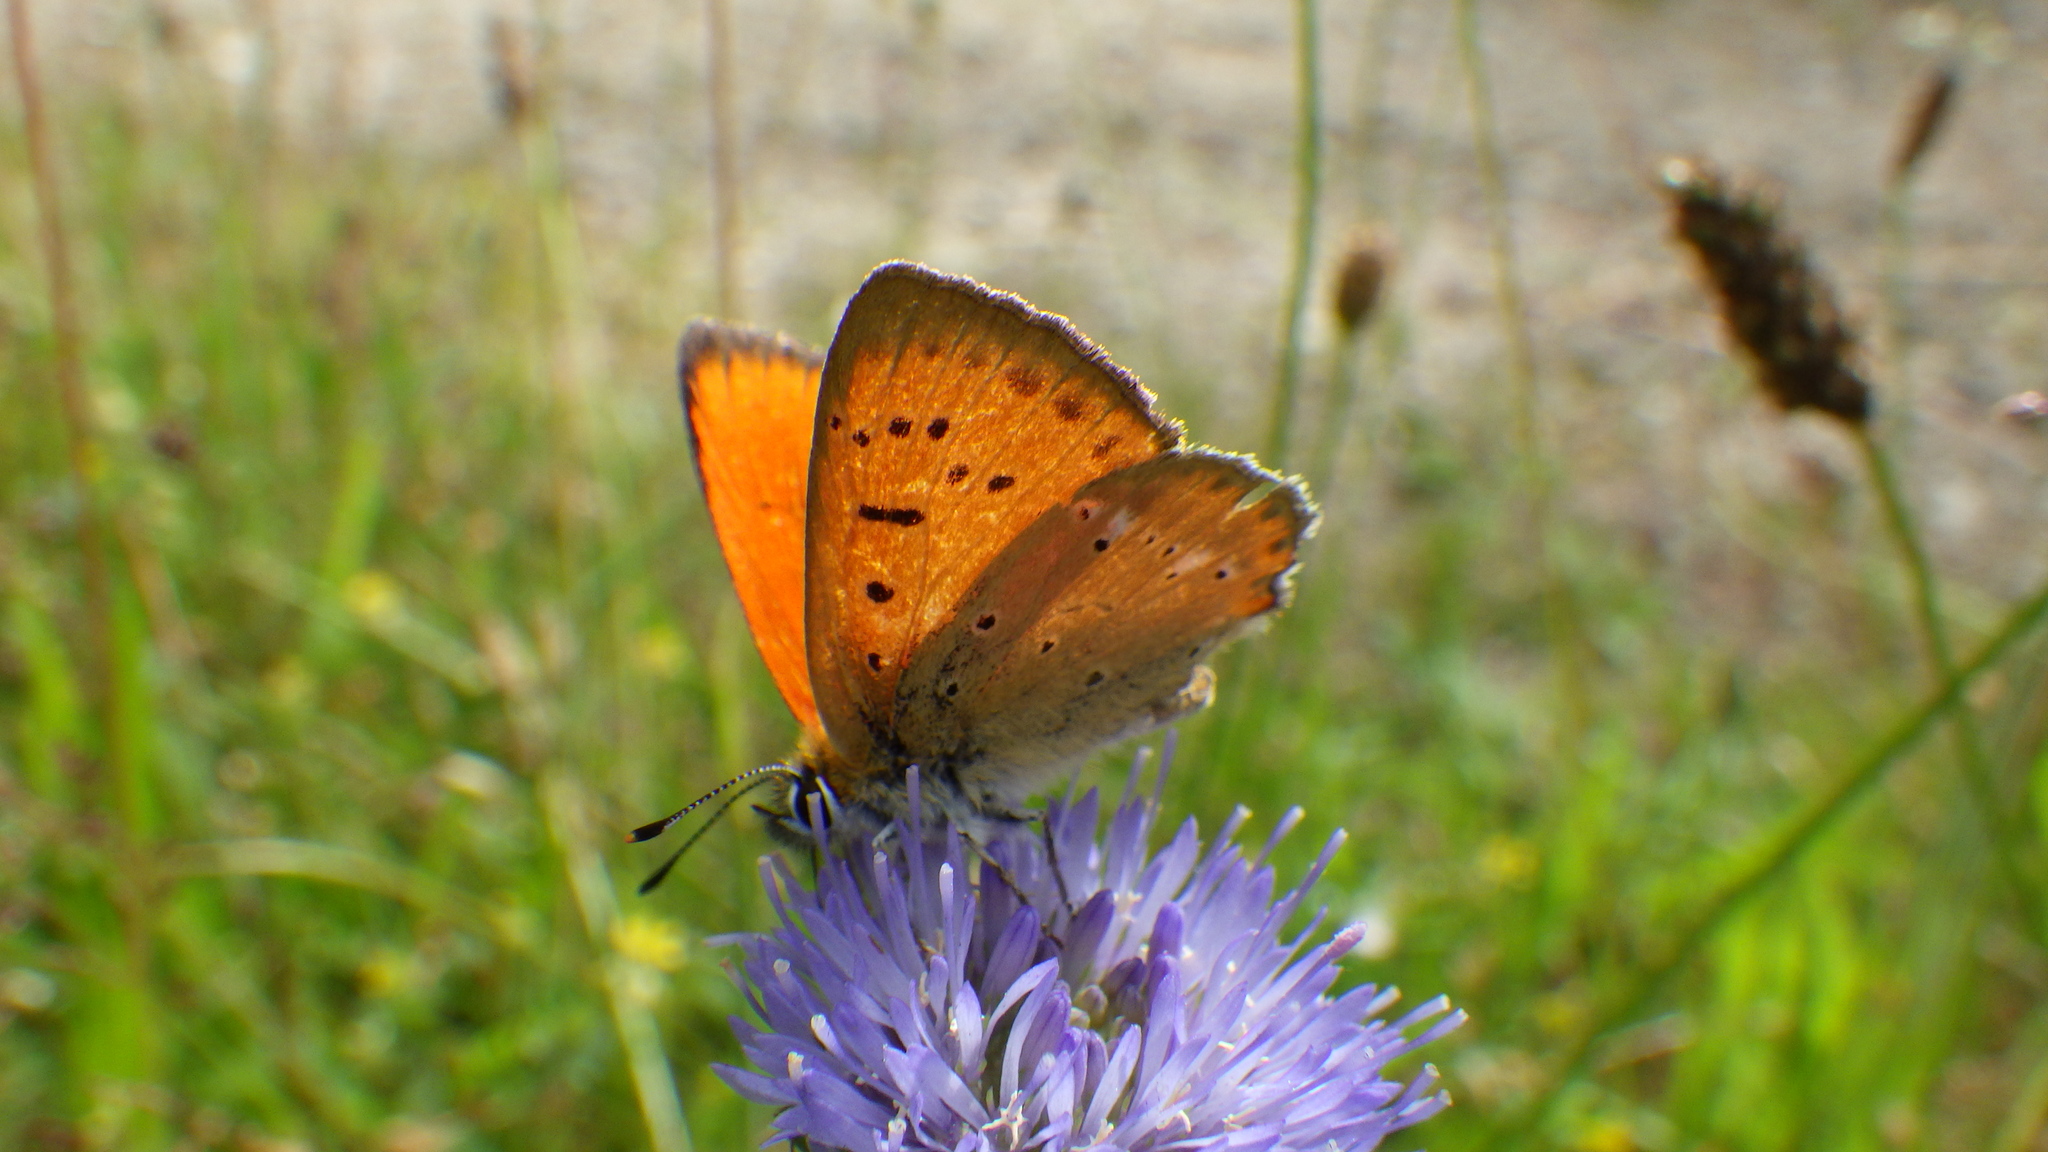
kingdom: Animalia
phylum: Arthropoda
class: Insecta
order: Lepidoptera
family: Lycaenidae
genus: Lycaena
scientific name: Lycaena virgaureae
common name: Scarce copper
